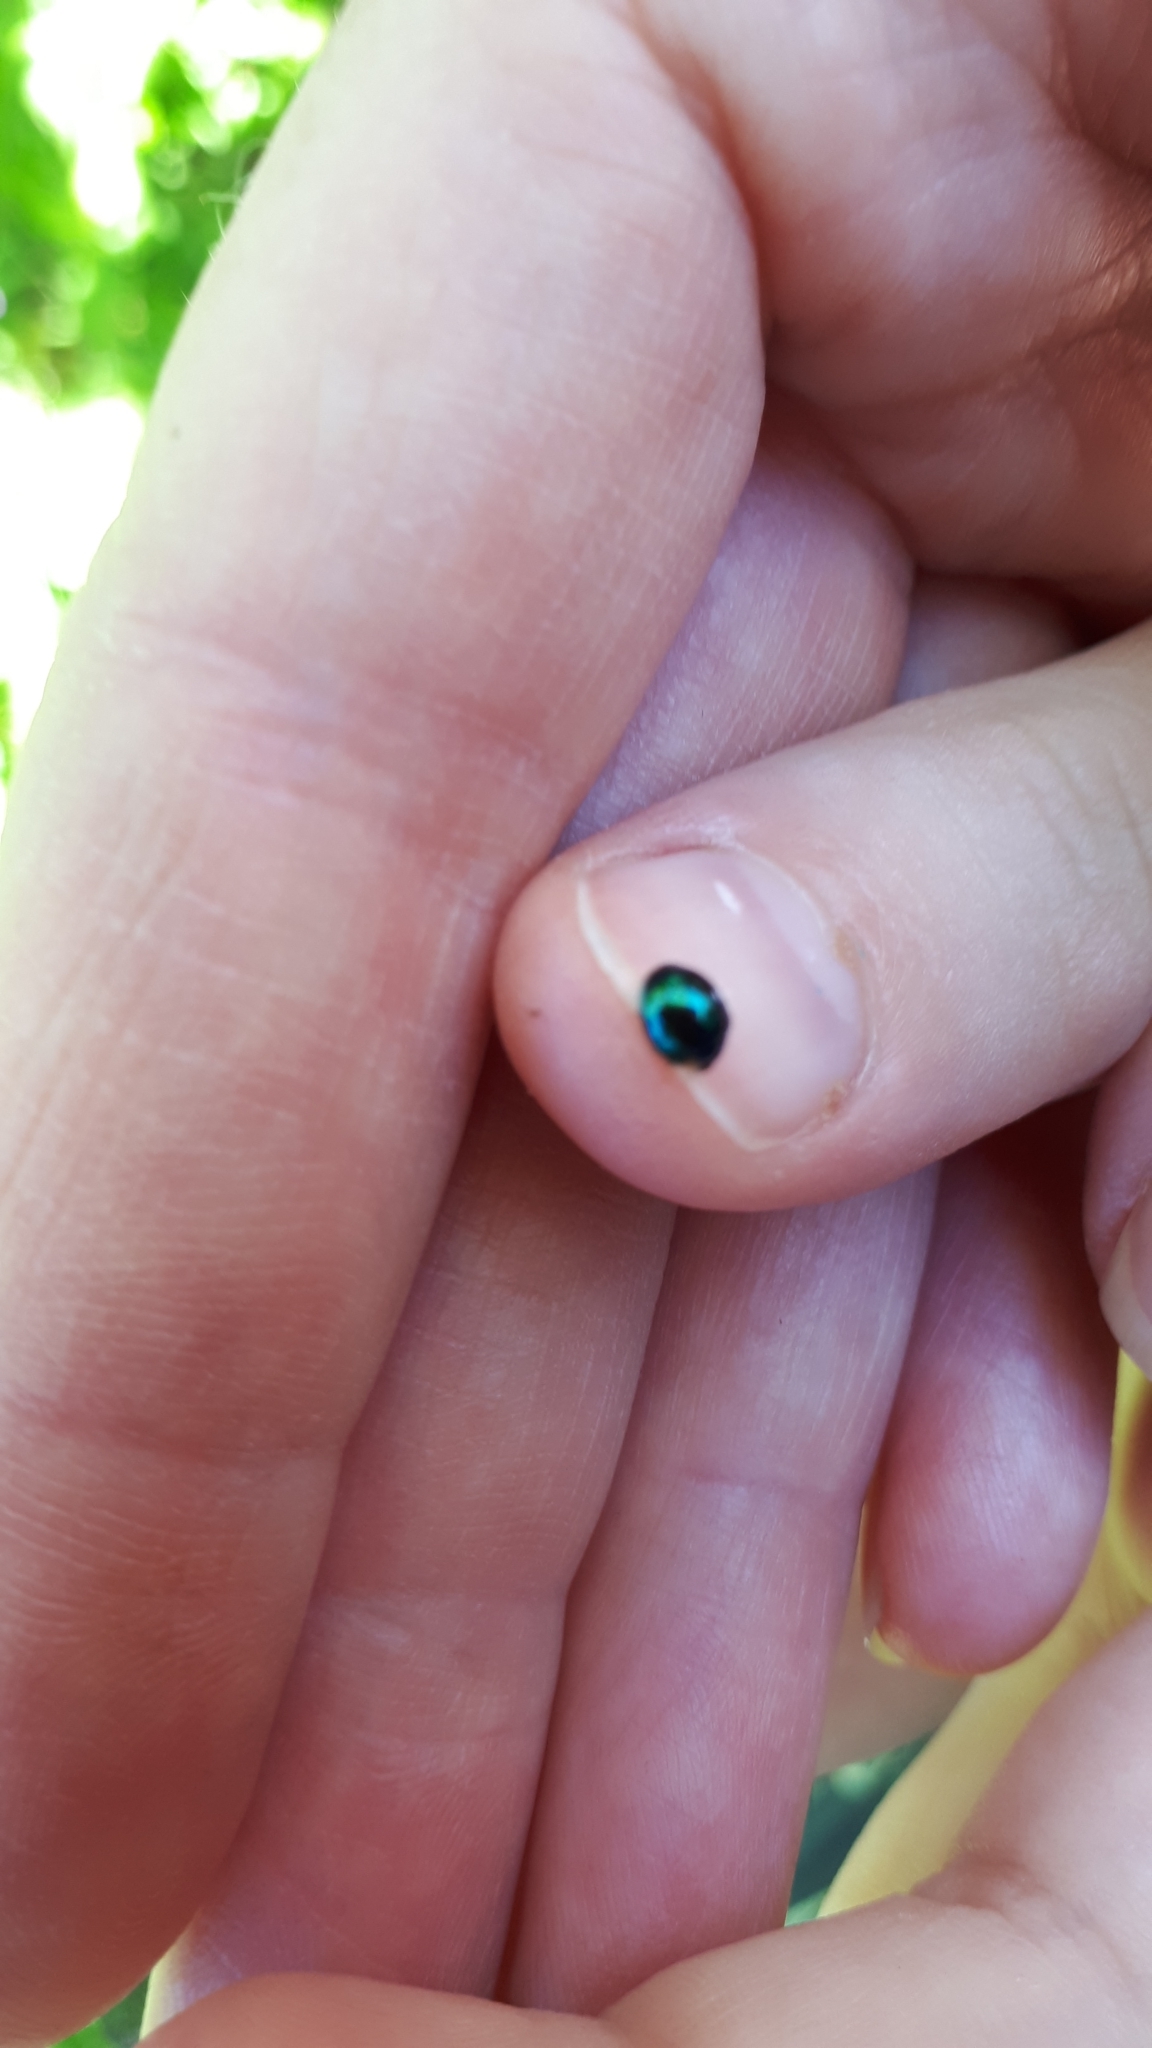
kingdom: Animalia
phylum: Arthropoda
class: Insecta
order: Coleoptera
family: Coccinellidae
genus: Halmus
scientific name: Halmus chalybeus
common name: Steel blue ladybird beetle
